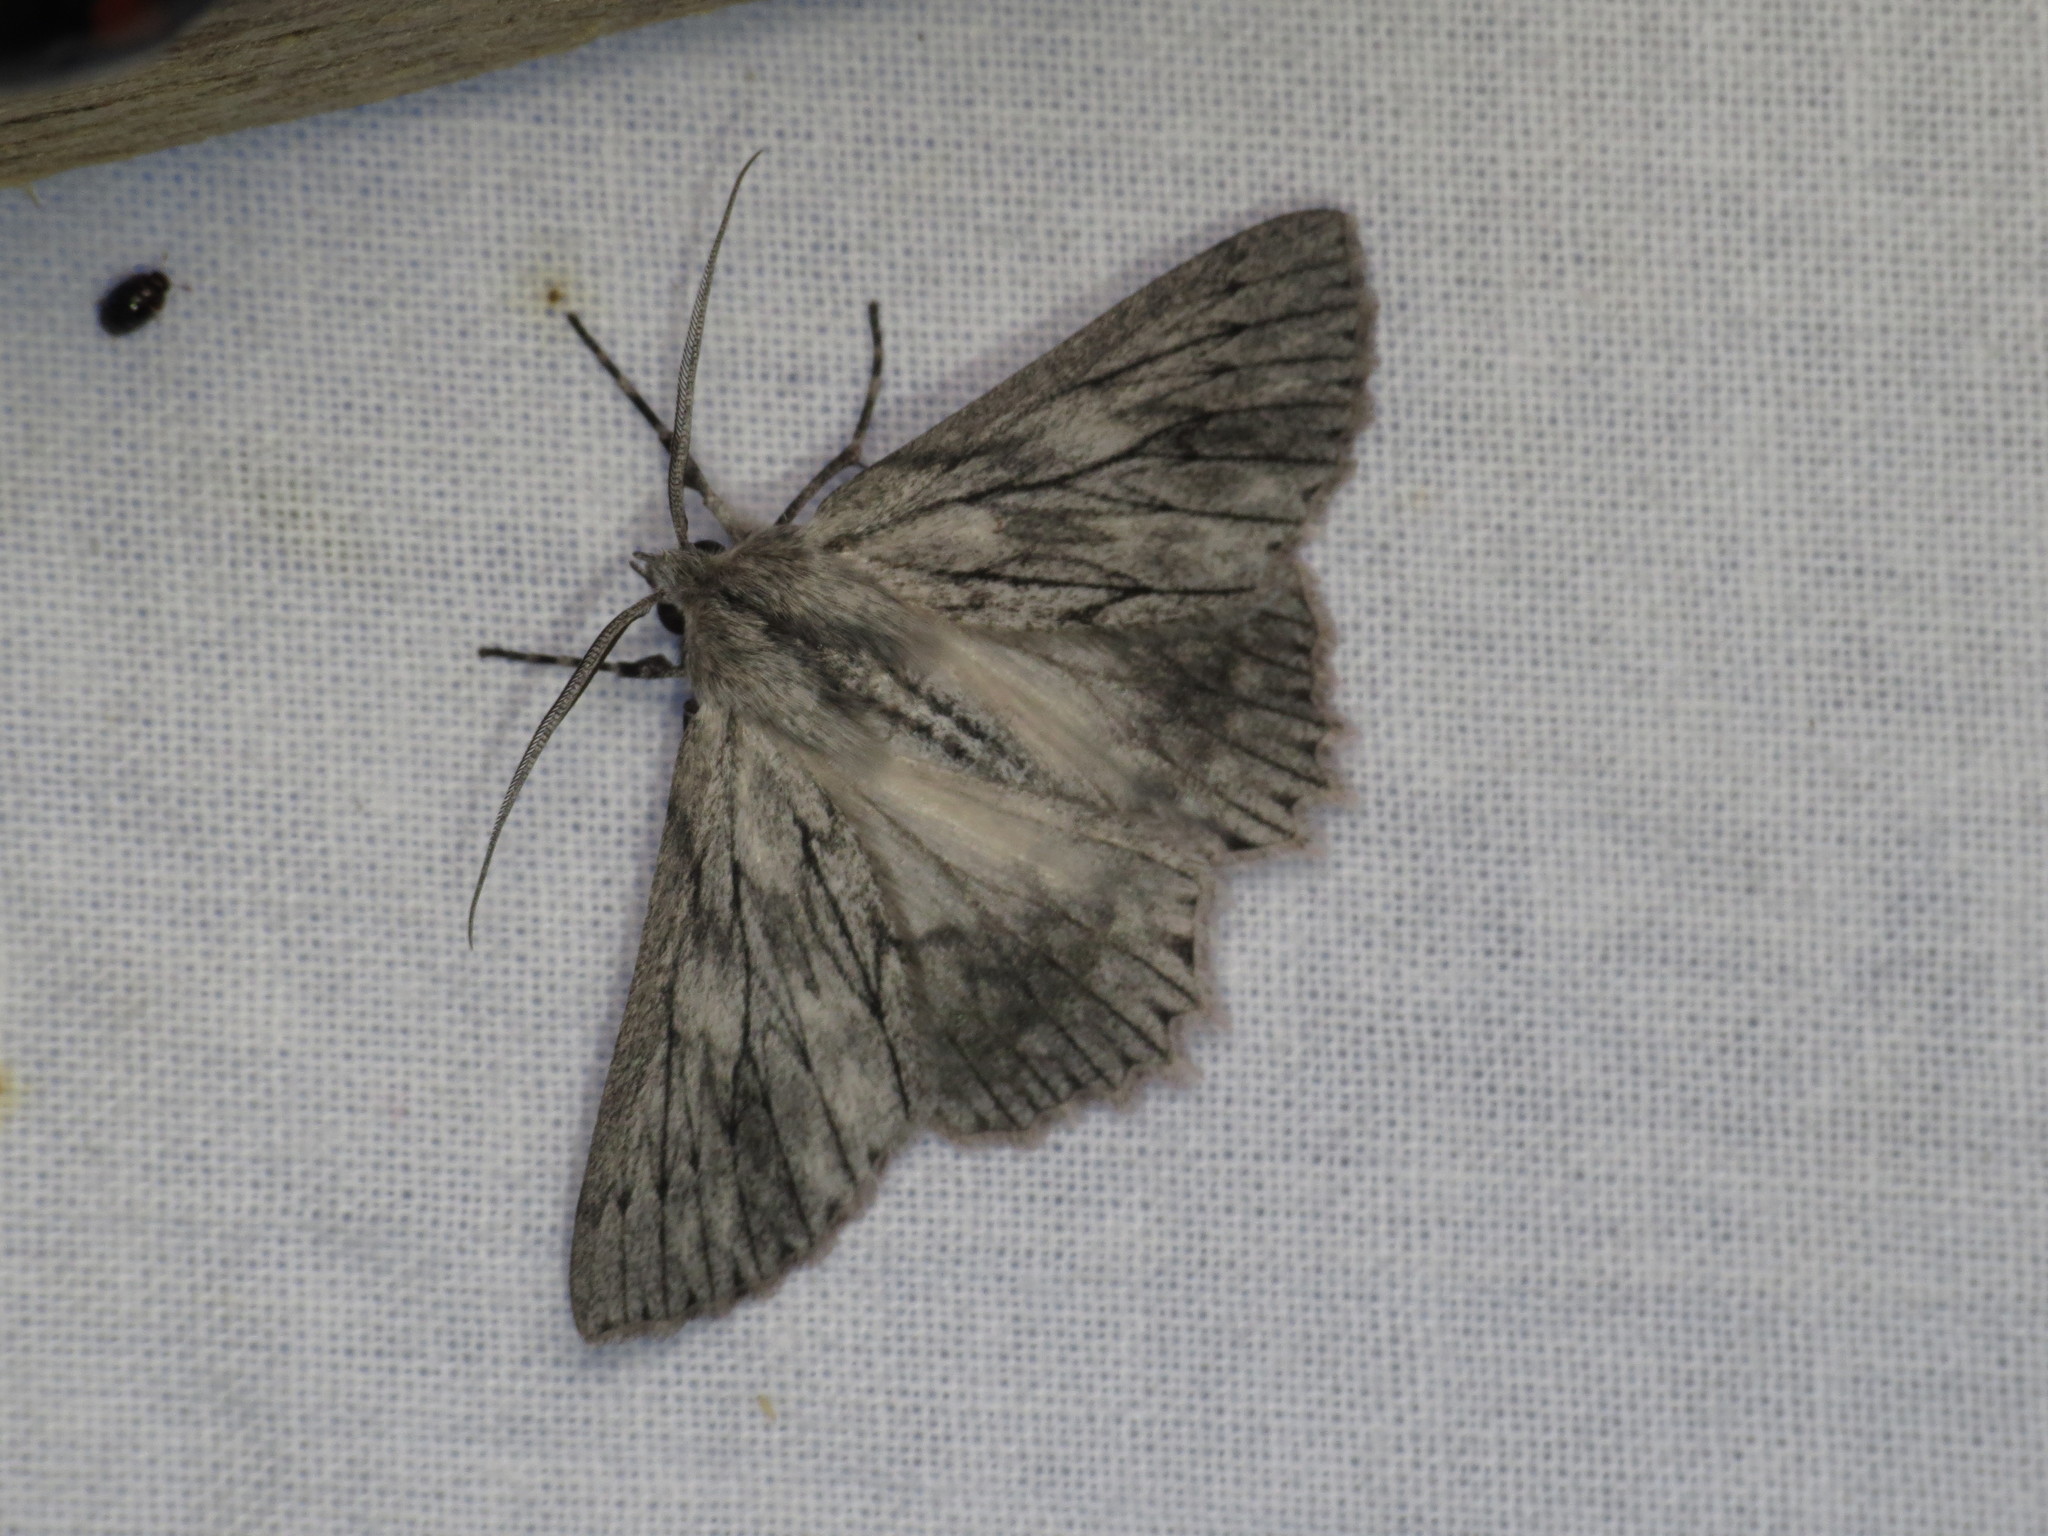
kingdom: Animalia
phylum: Arthropoda
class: Insecta
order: Lepidoptera
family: Geometridae
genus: Cyneoterpna
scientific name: Cyneoterpna wilsoni
